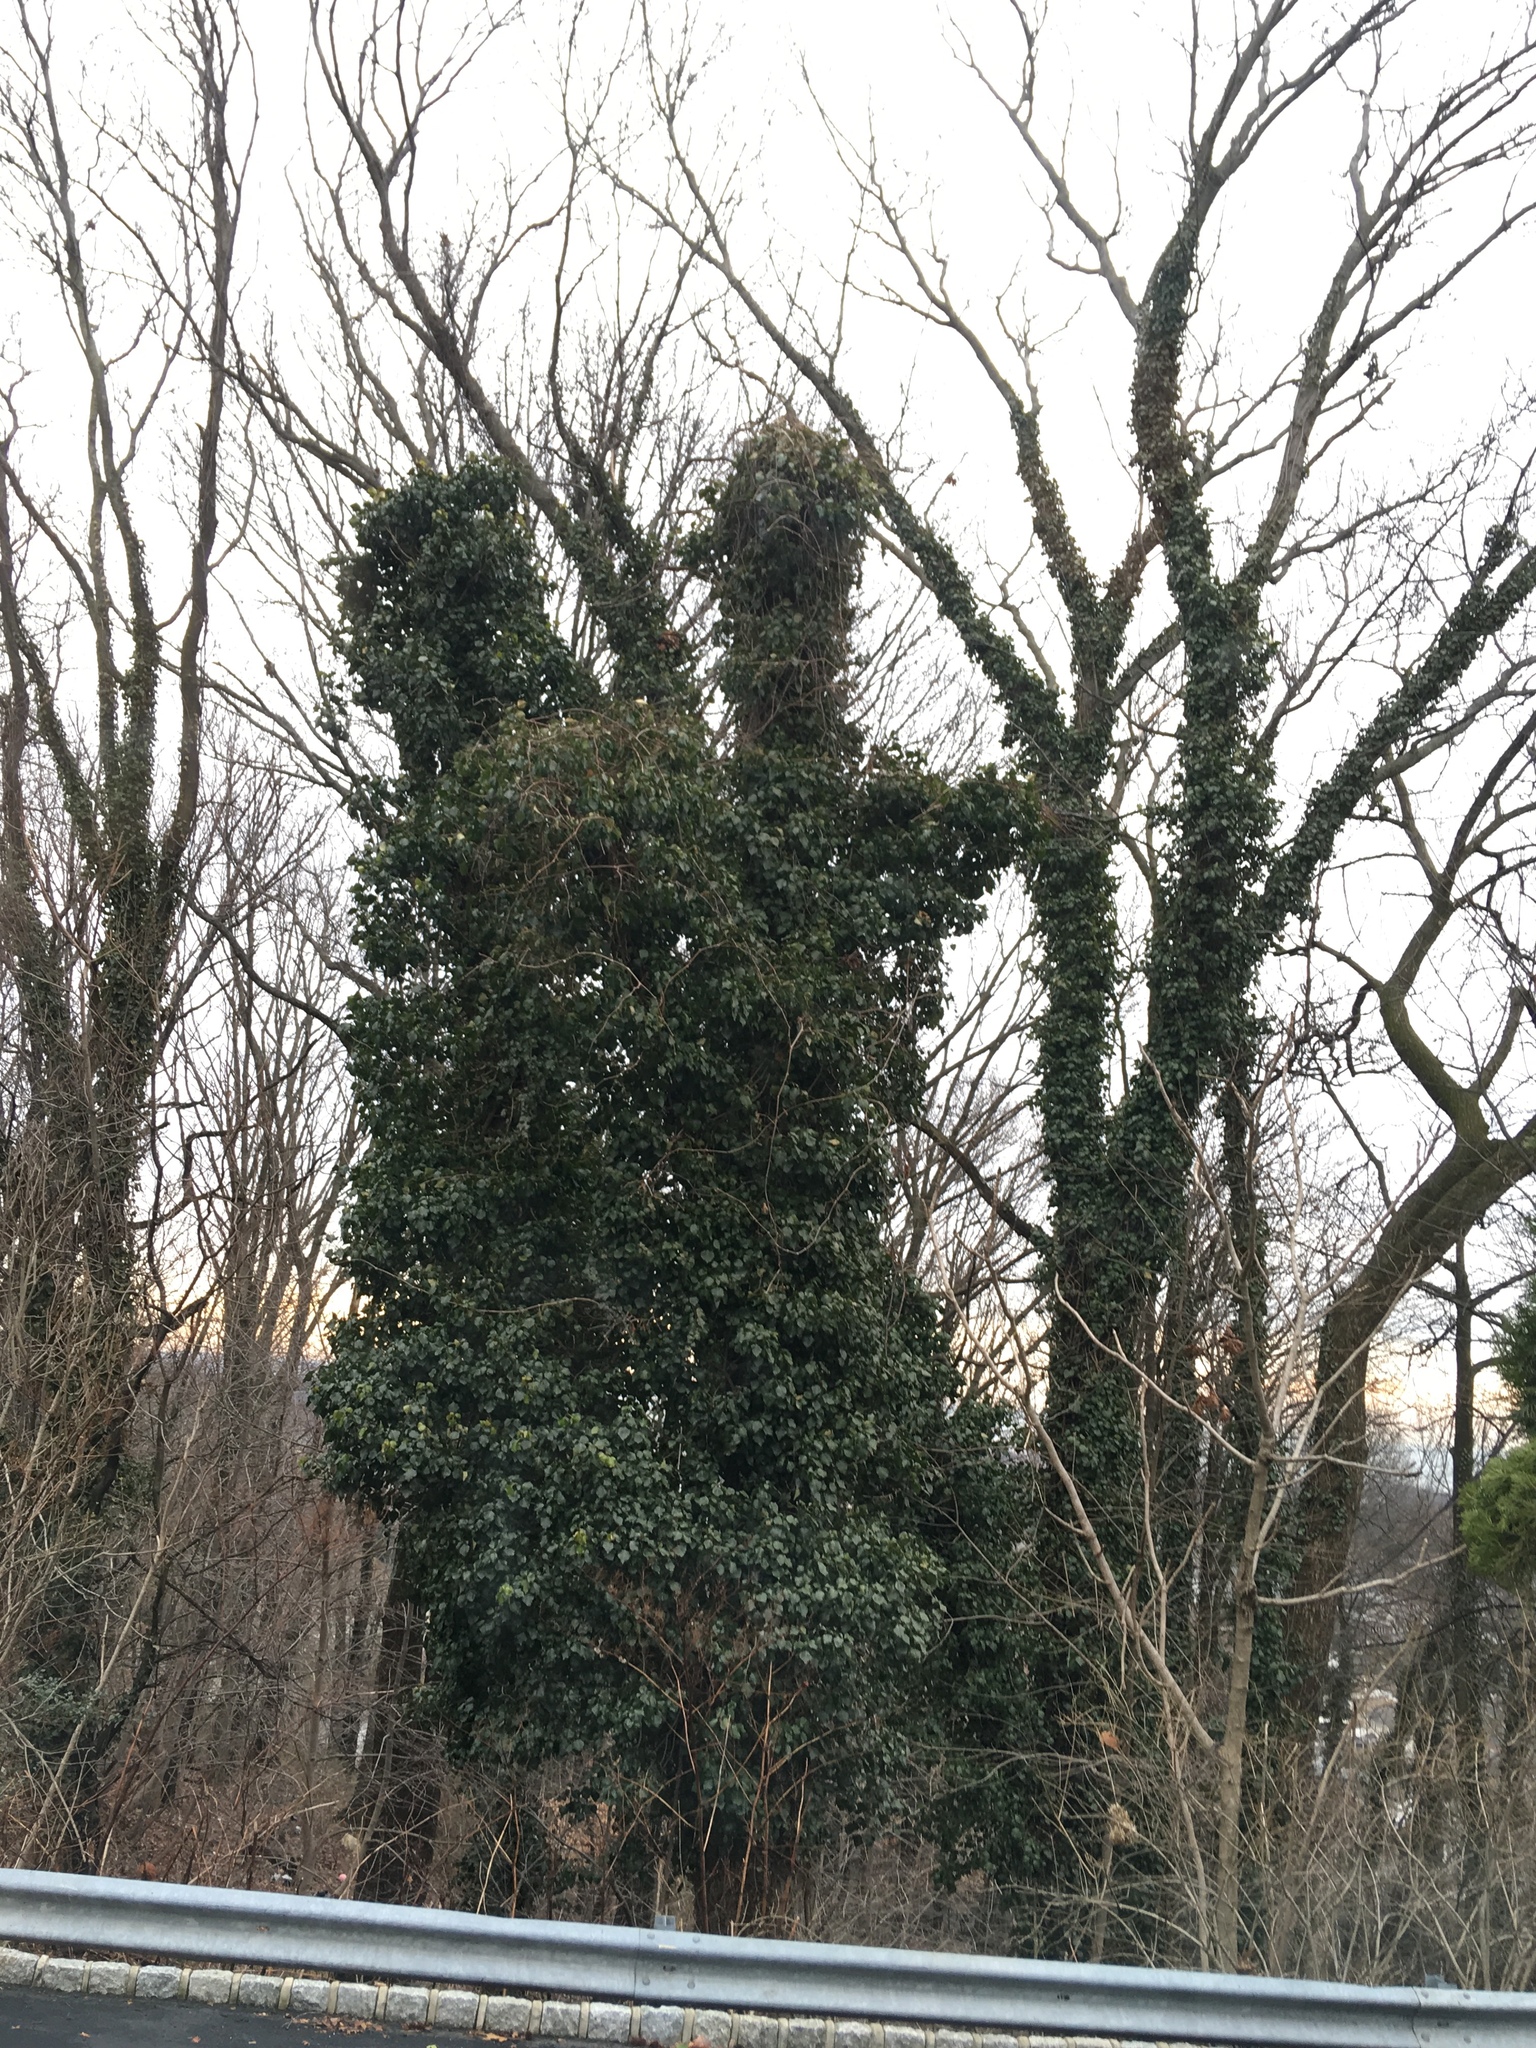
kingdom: Plantae
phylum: Tracheophyta
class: Magnoliopsida
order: Apiales
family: Araliaceae
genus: Hedera
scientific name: Hedera helix
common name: Ivy
